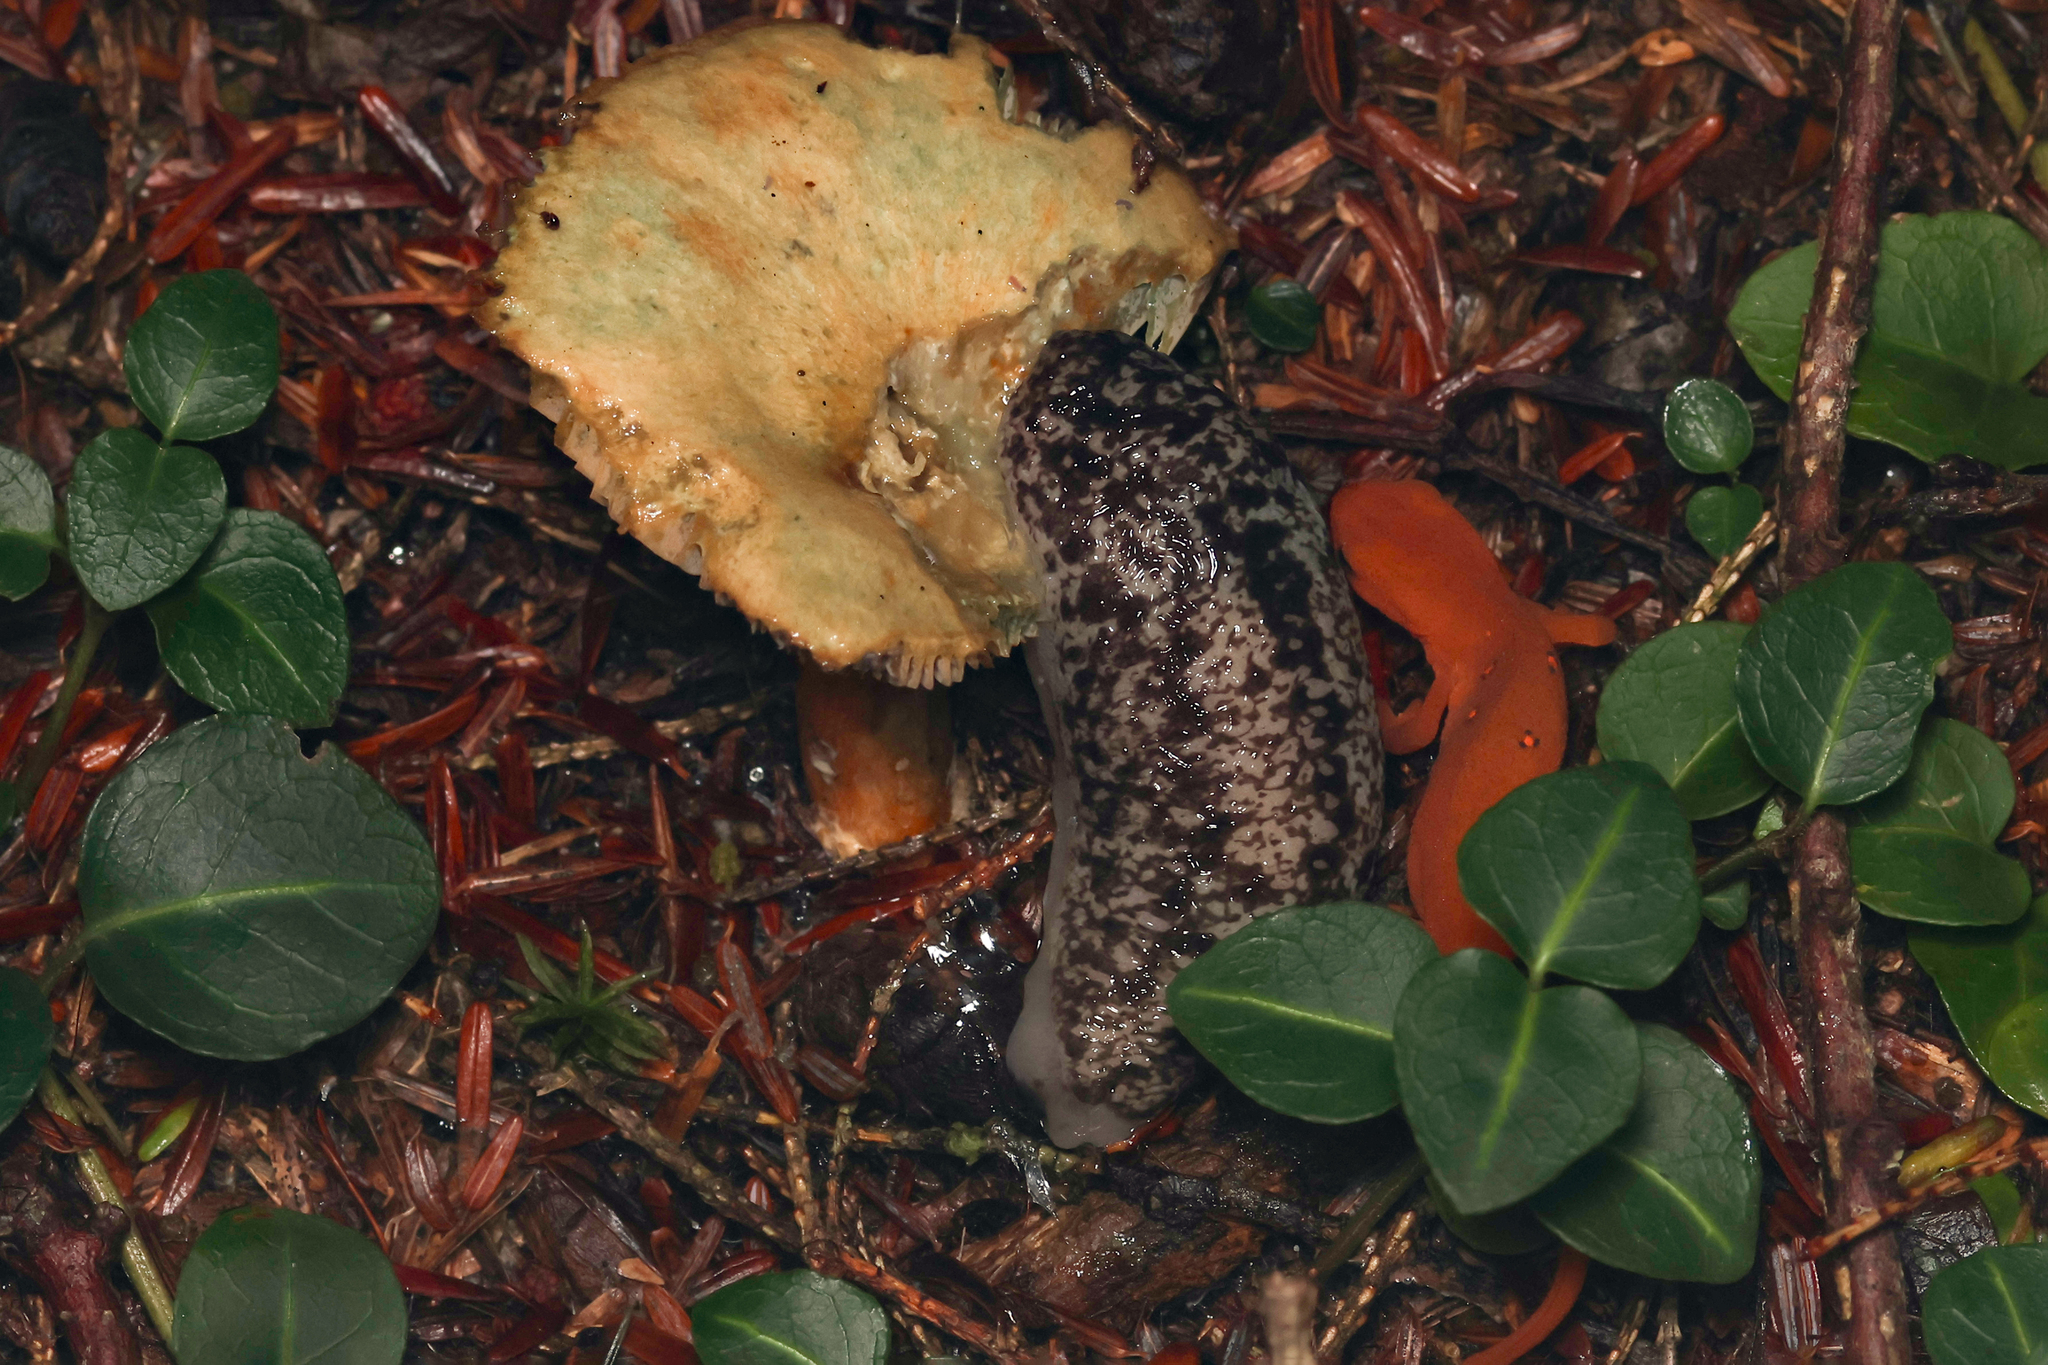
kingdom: Animalia
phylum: Mollusca
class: Gastropoda
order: Stylommatophora
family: Philomycidae
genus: Philomycus
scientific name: Philomycus flexuolaris
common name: Winding mantleslug
